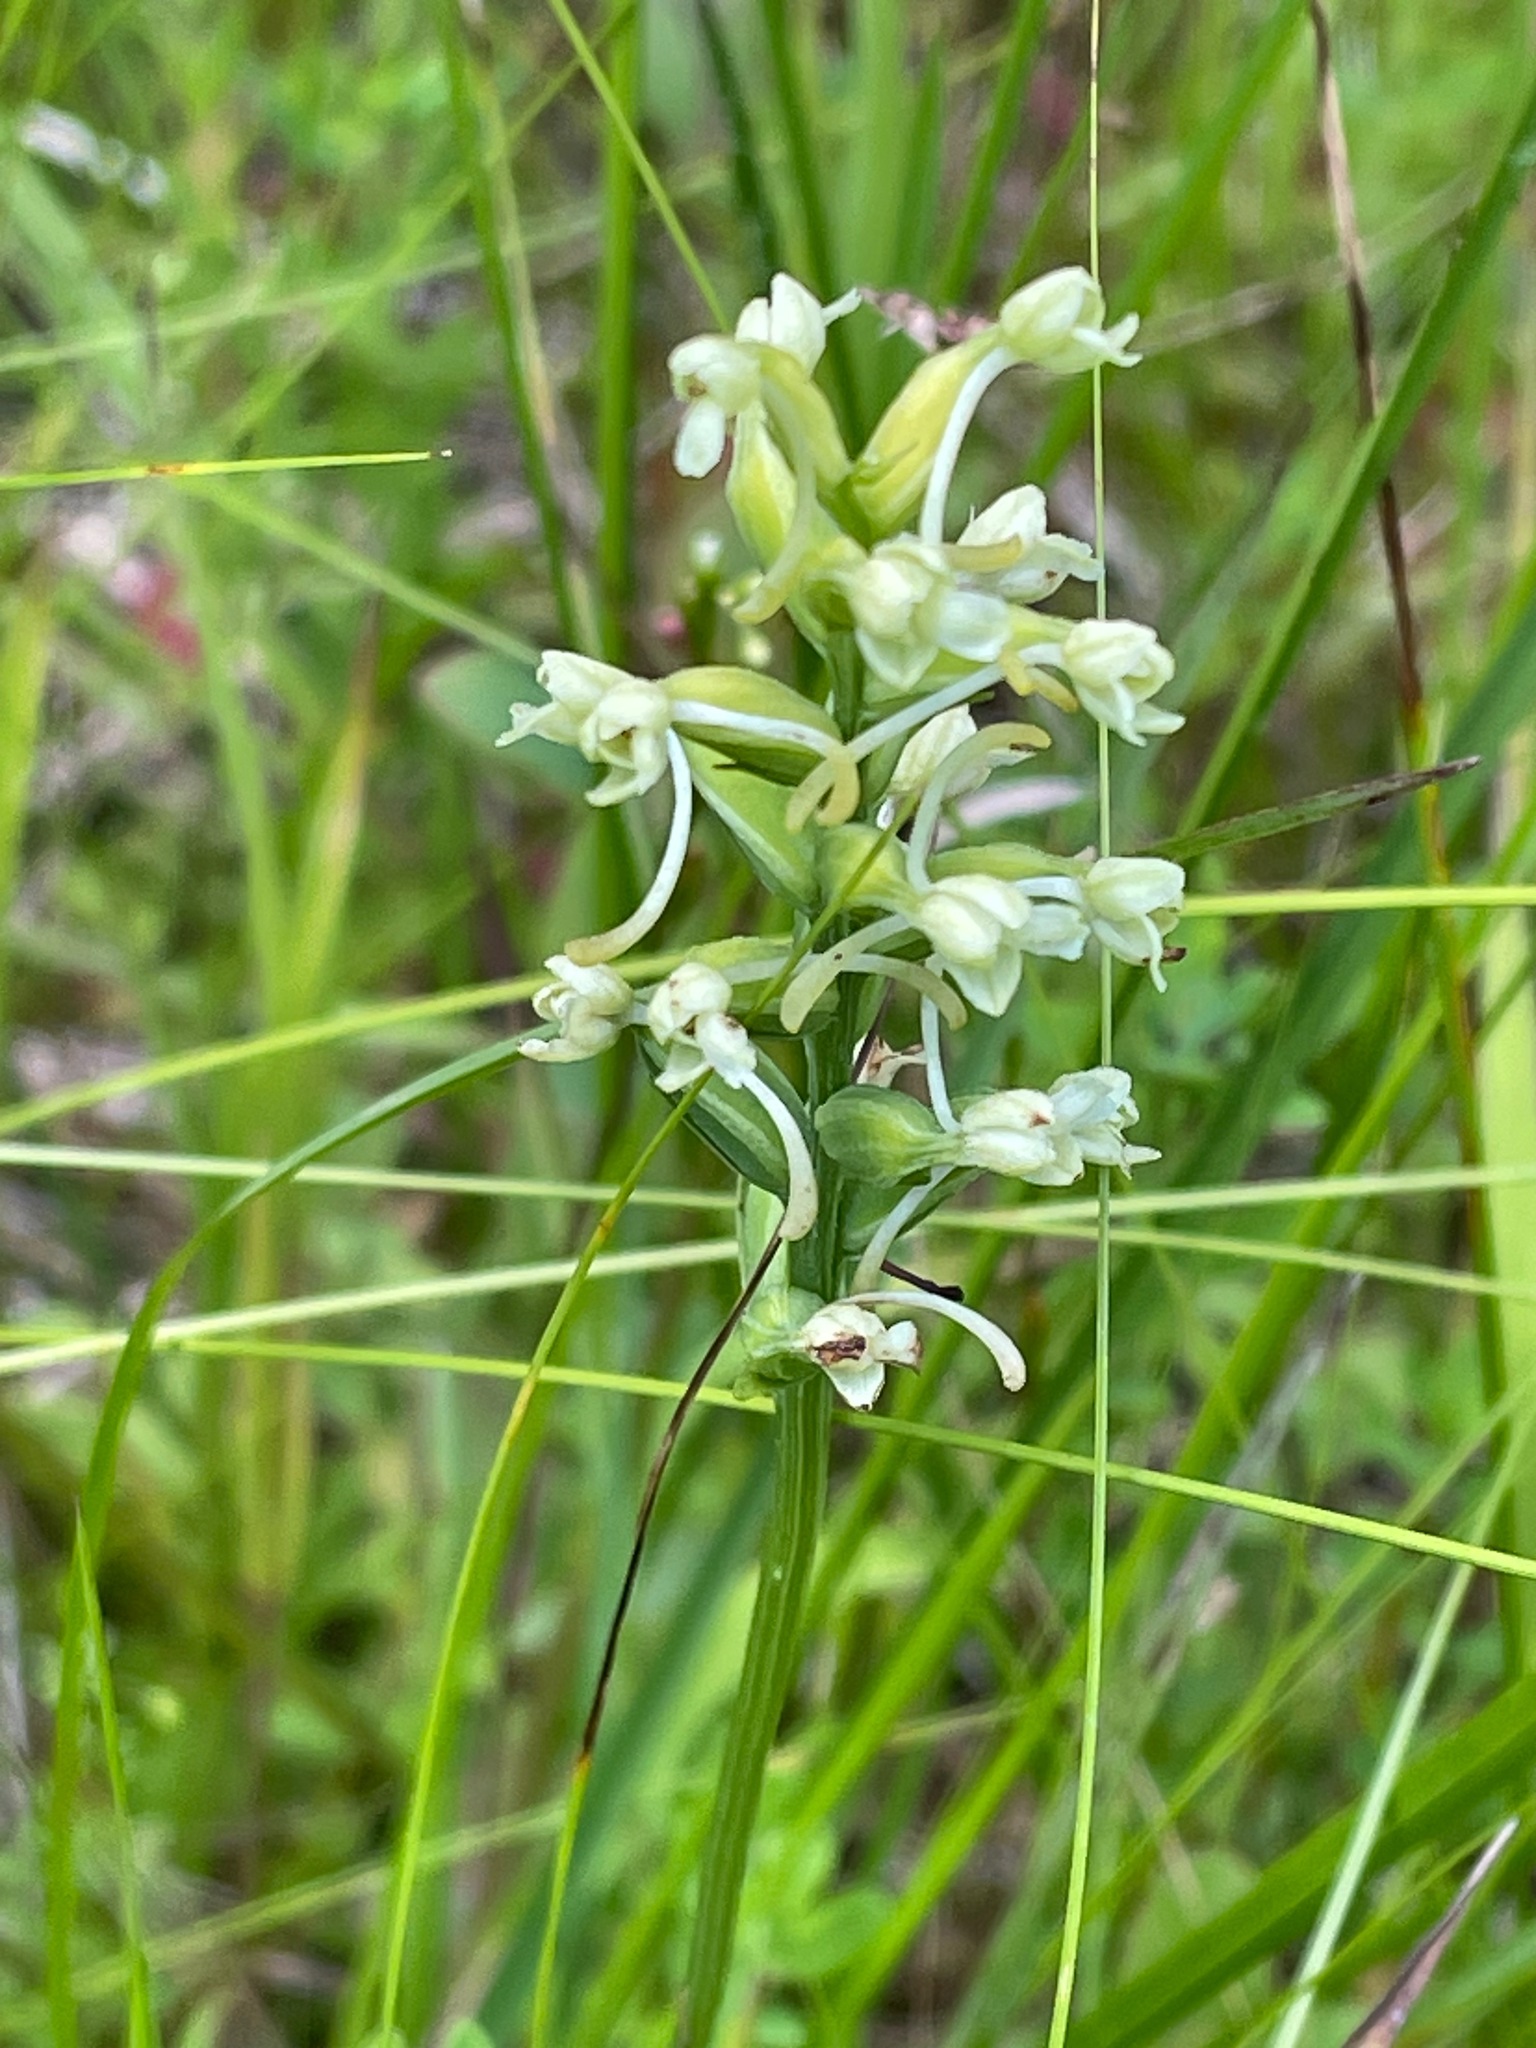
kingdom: Plantae
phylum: Tracheophyta
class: Liliopsida
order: Asparagales
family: Orchidaceae
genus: Platanthera
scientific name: Platanthera clavellata
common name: Club-spur orchid
